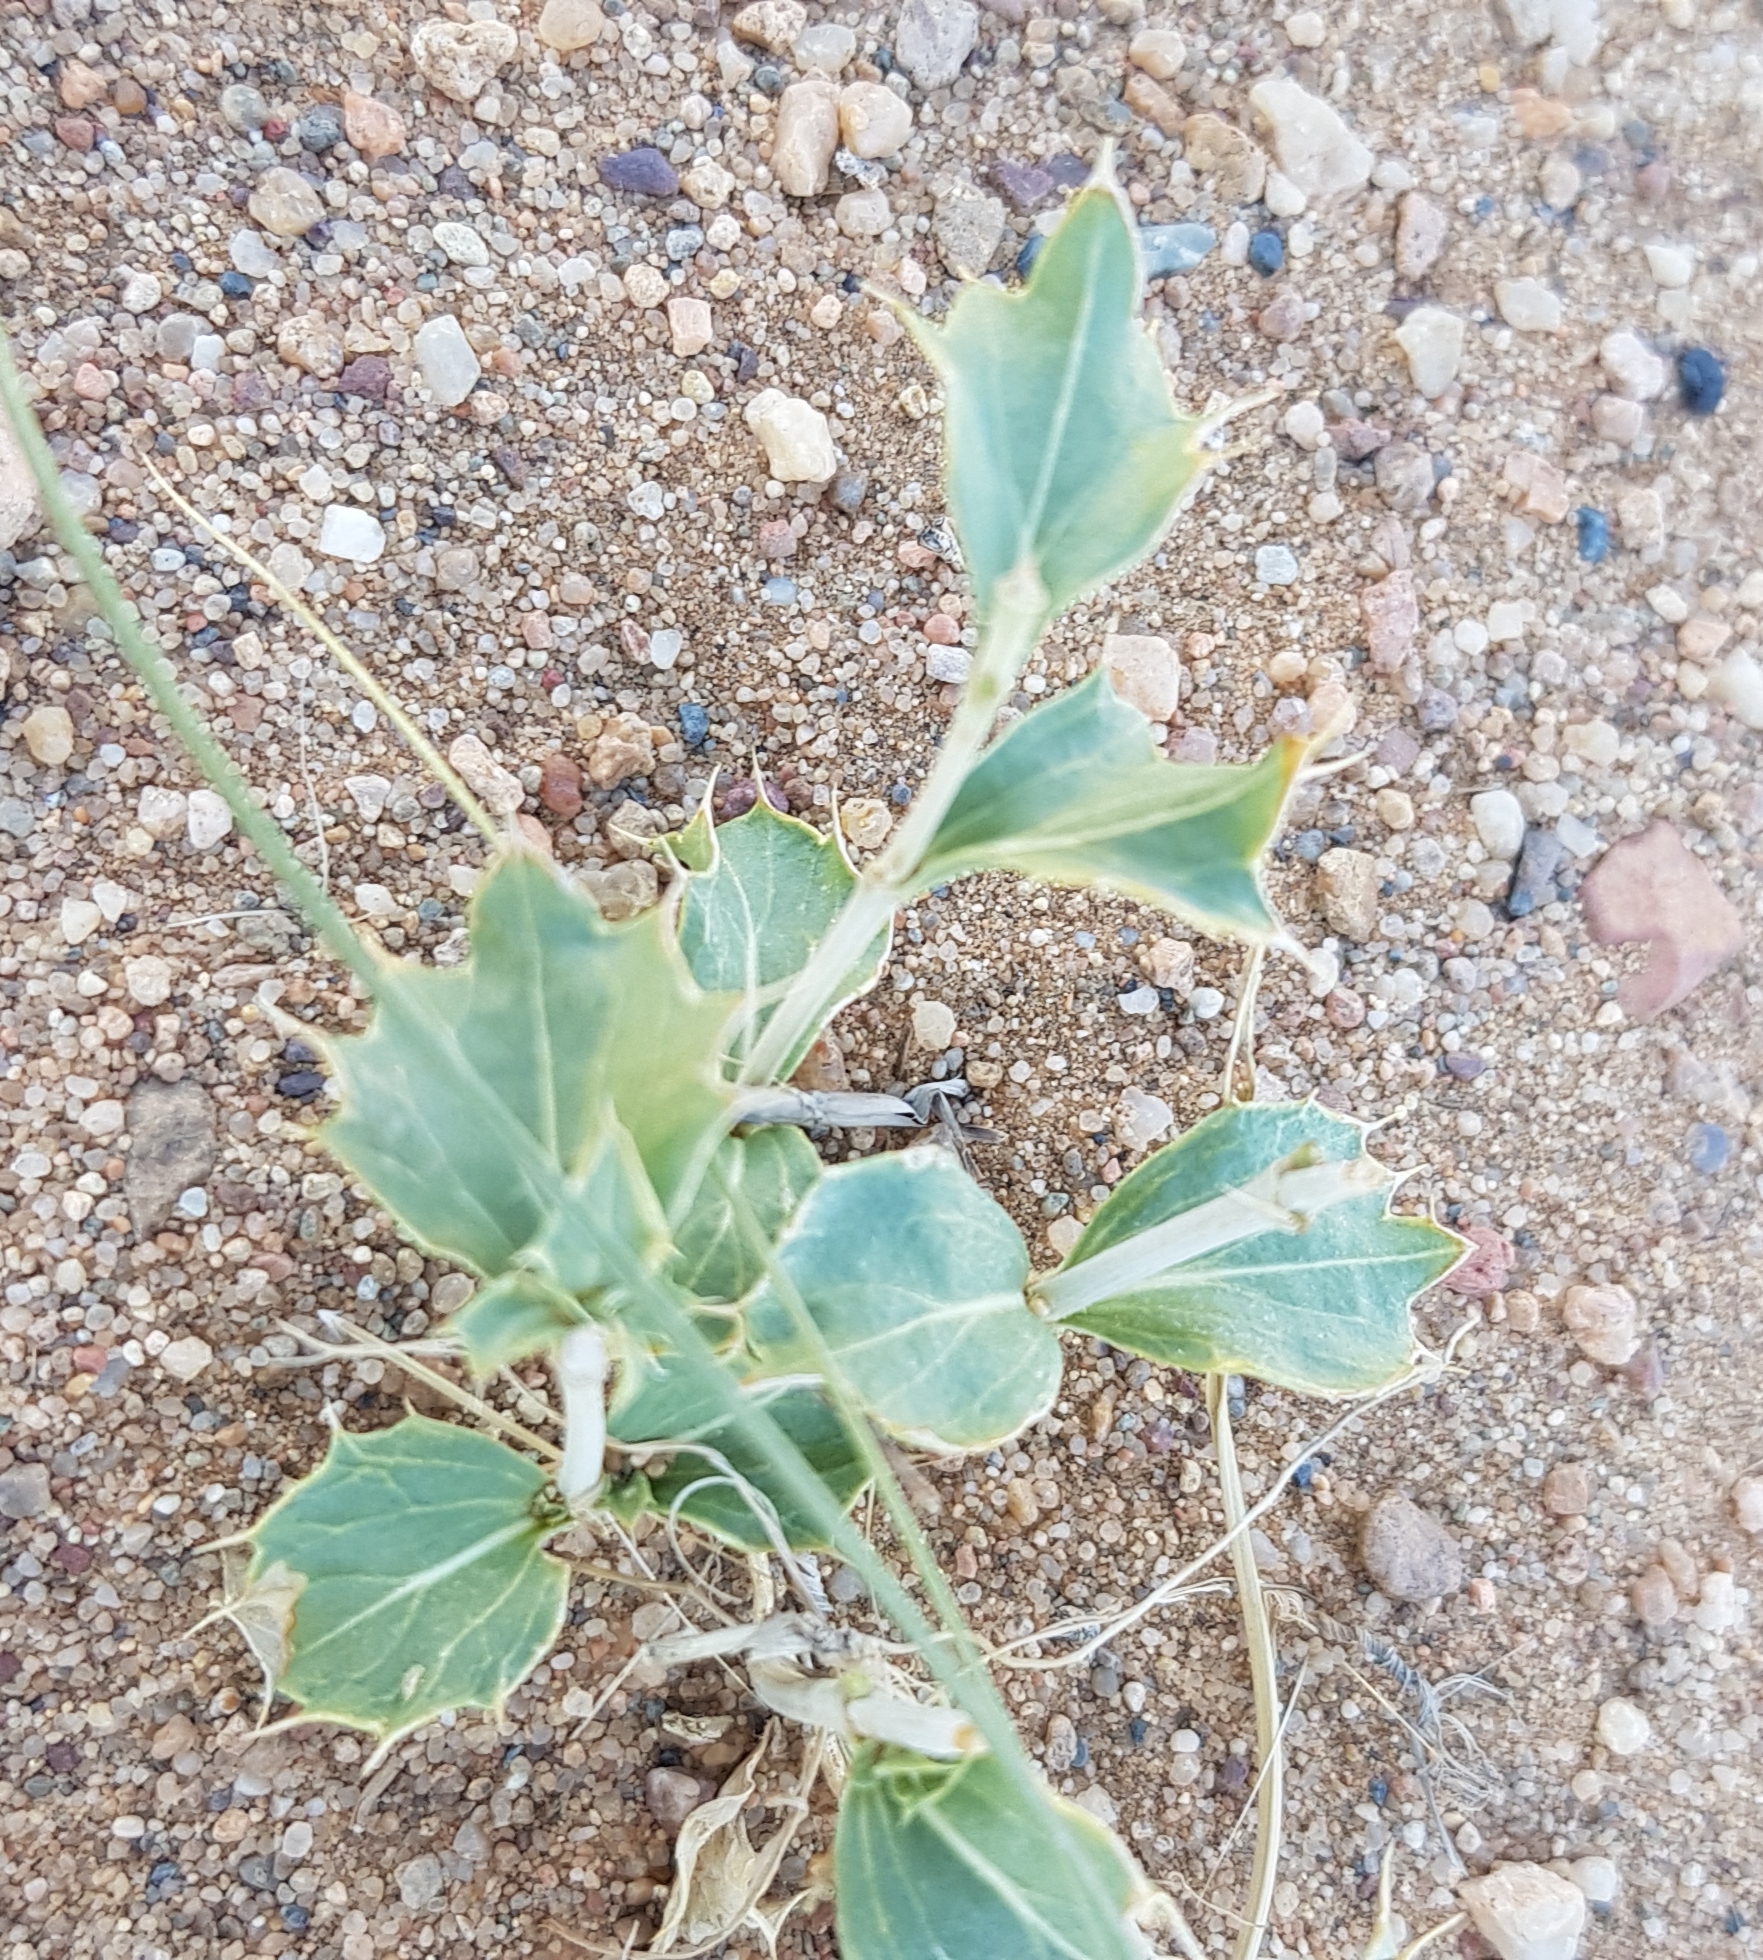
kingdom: Plantae
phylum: Tracheophyta
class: Magnoliopsida
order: Lamiales
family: Lamiaceae
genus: Lagochilus
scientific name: Lagochilus ilicifolius
